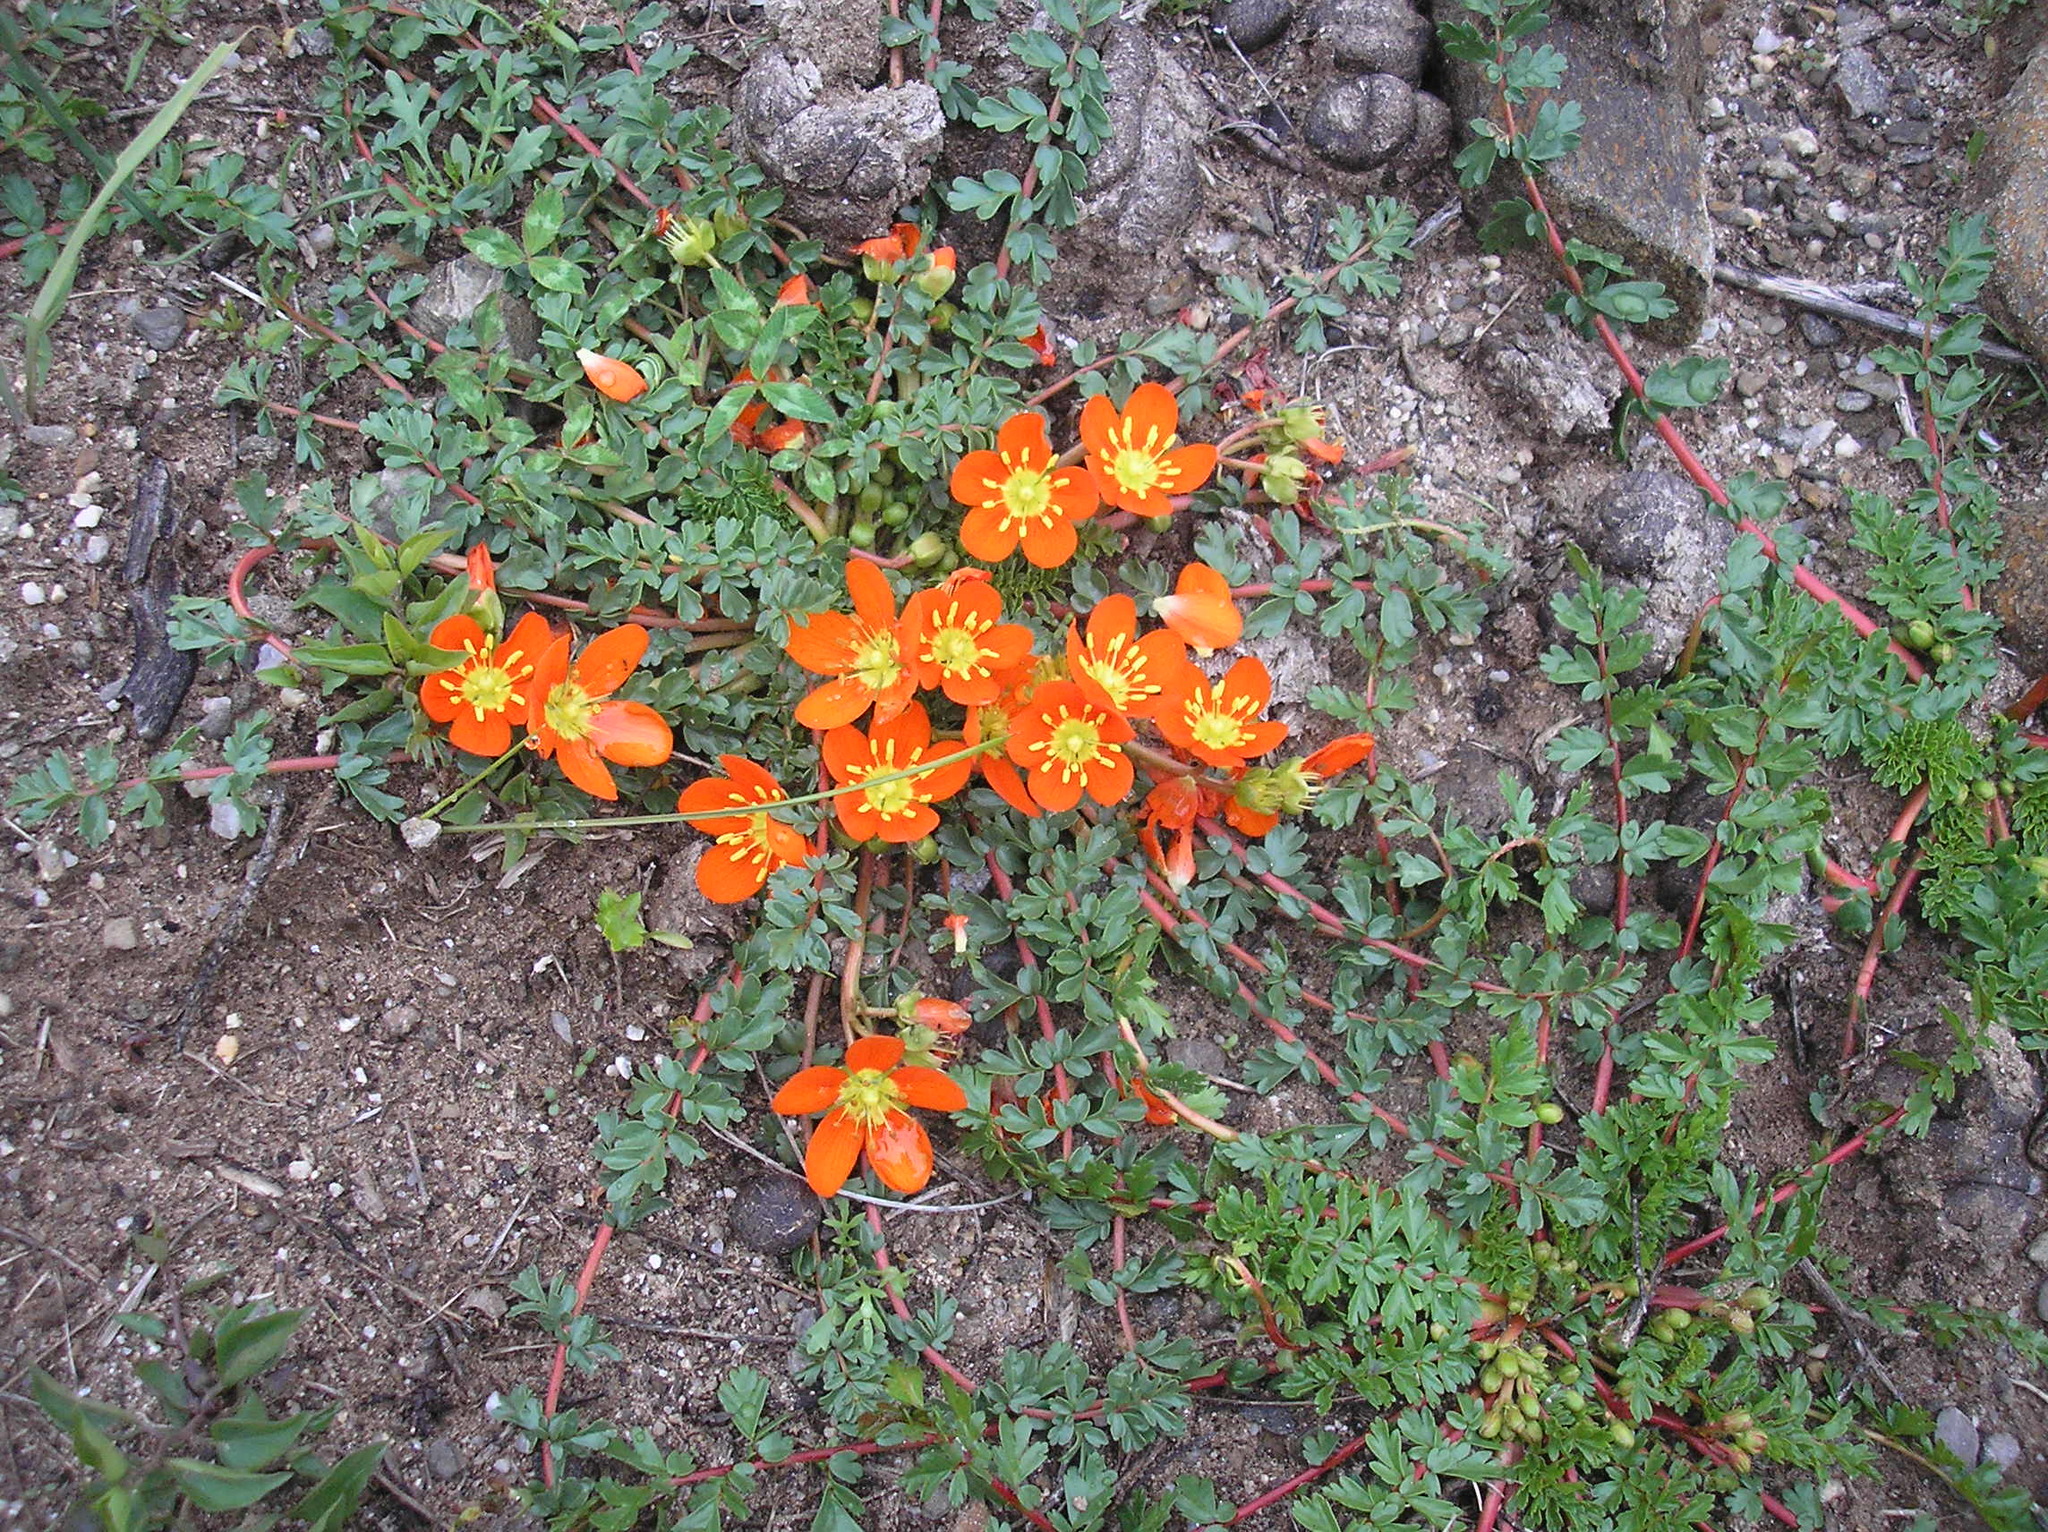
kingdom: Plantae
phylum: Tracheophyta
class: Magnoliopsida
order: Geraniales
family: Hypseocharitaceae
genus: Hypseocharis
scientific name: Hypseocharis pimpinellifolia
